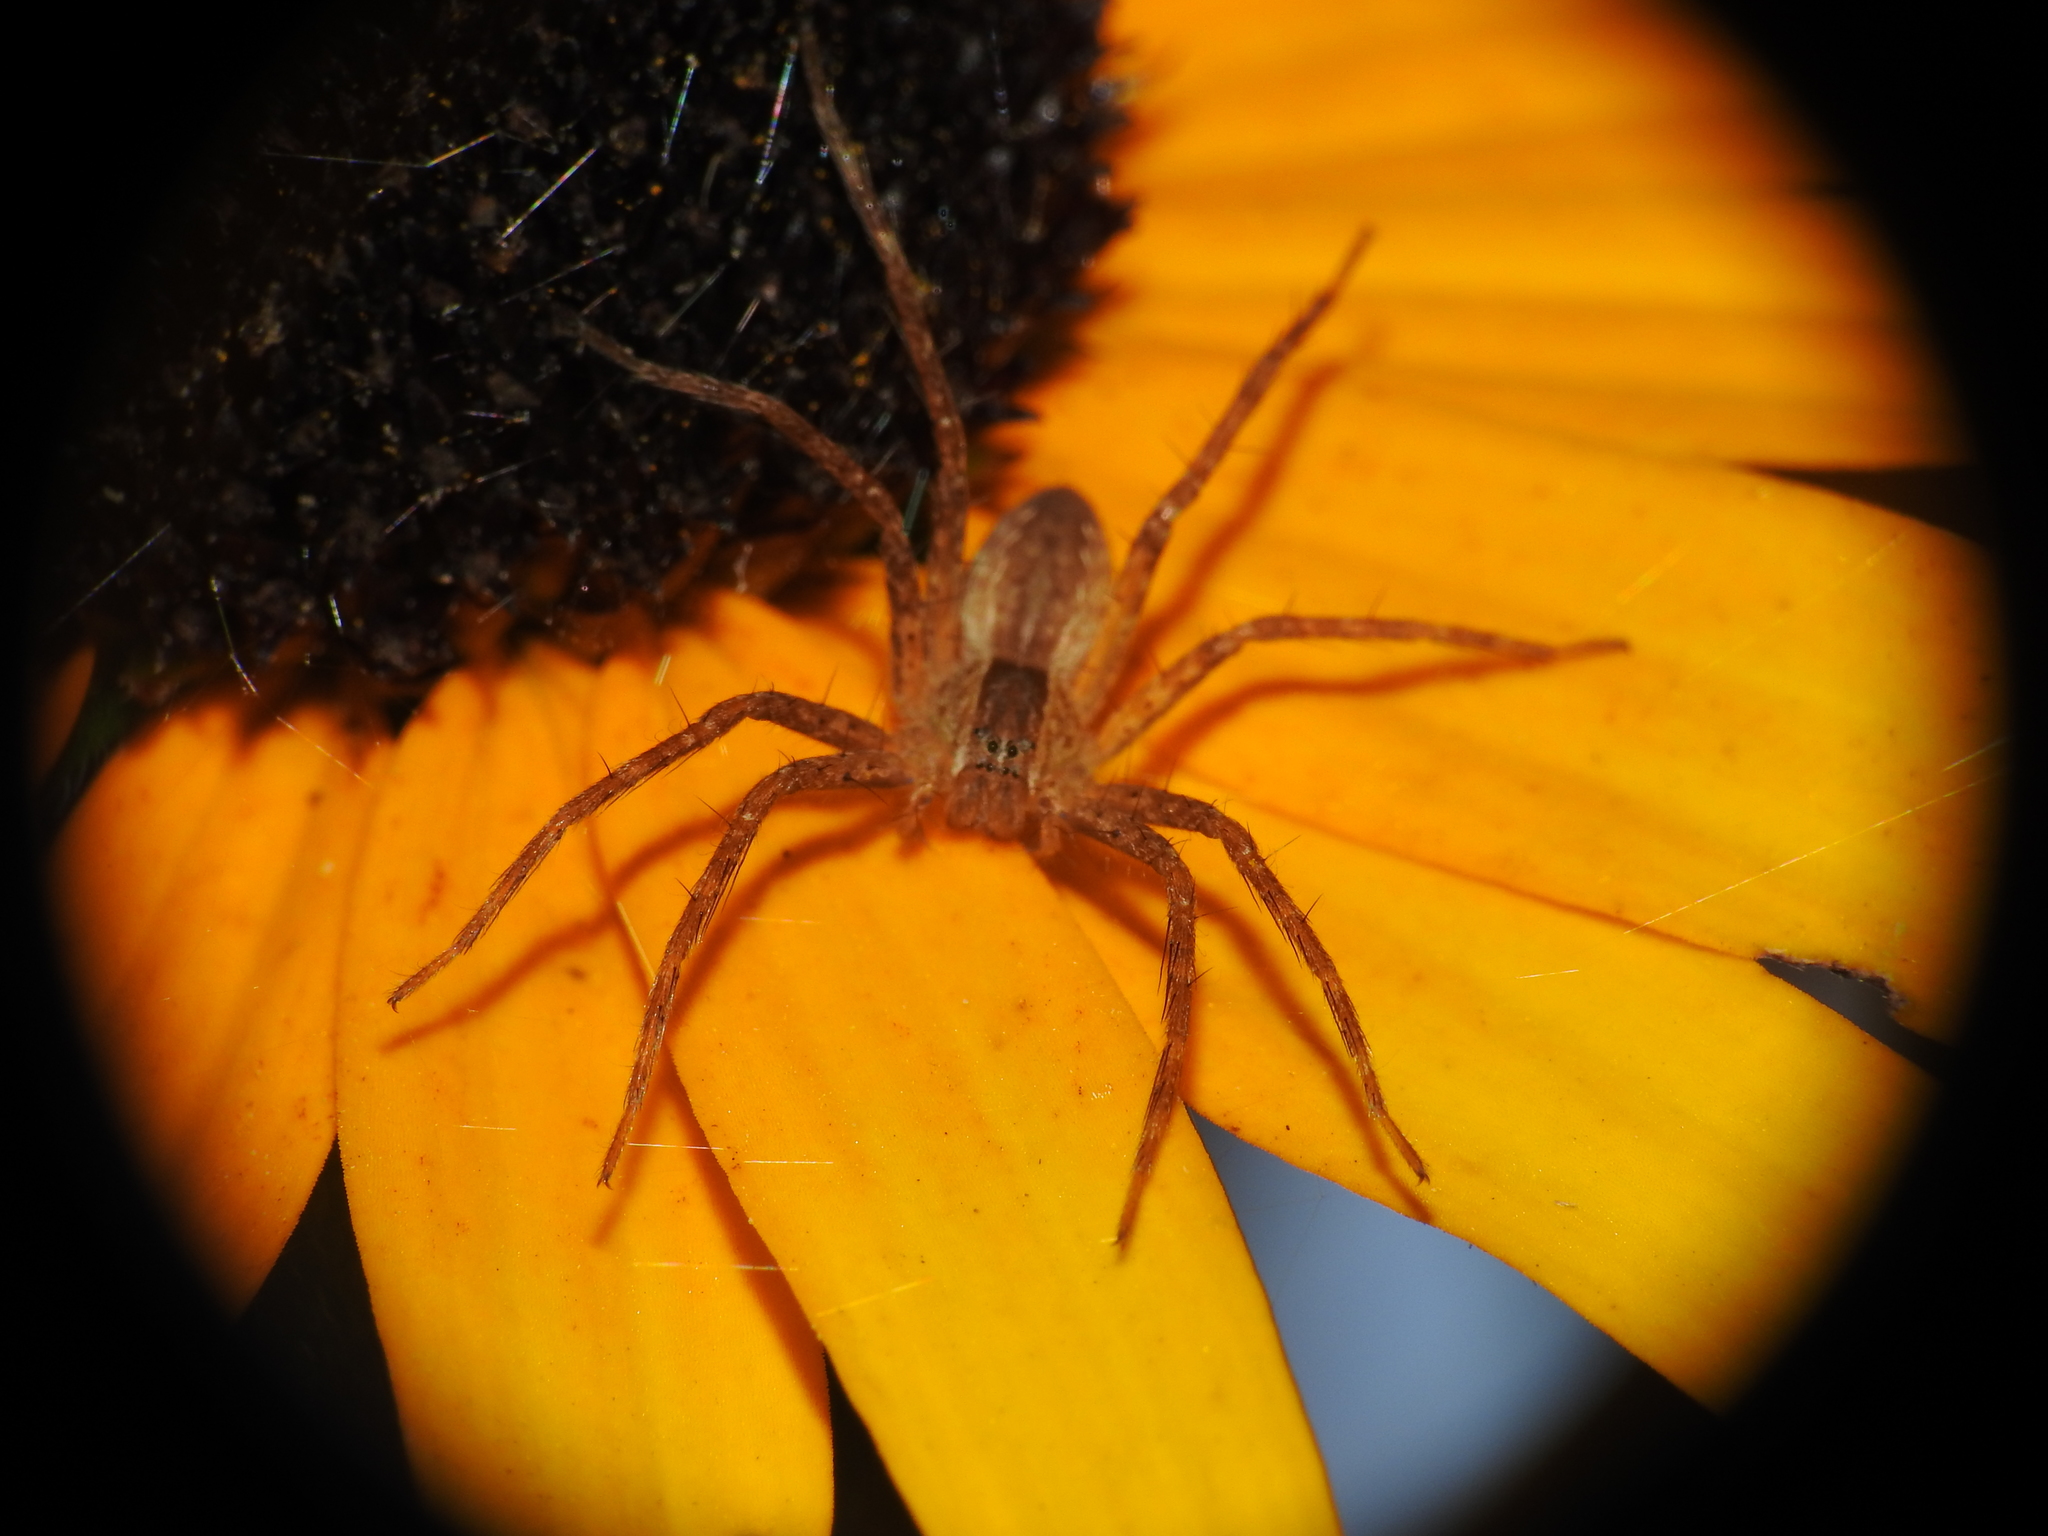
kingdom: Animalia
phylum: Arthropoda
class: Arachnida
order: Araneae
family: Pisauridae
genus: Pisaurina
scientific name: Pisaurina mira
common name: American nursery web spider
